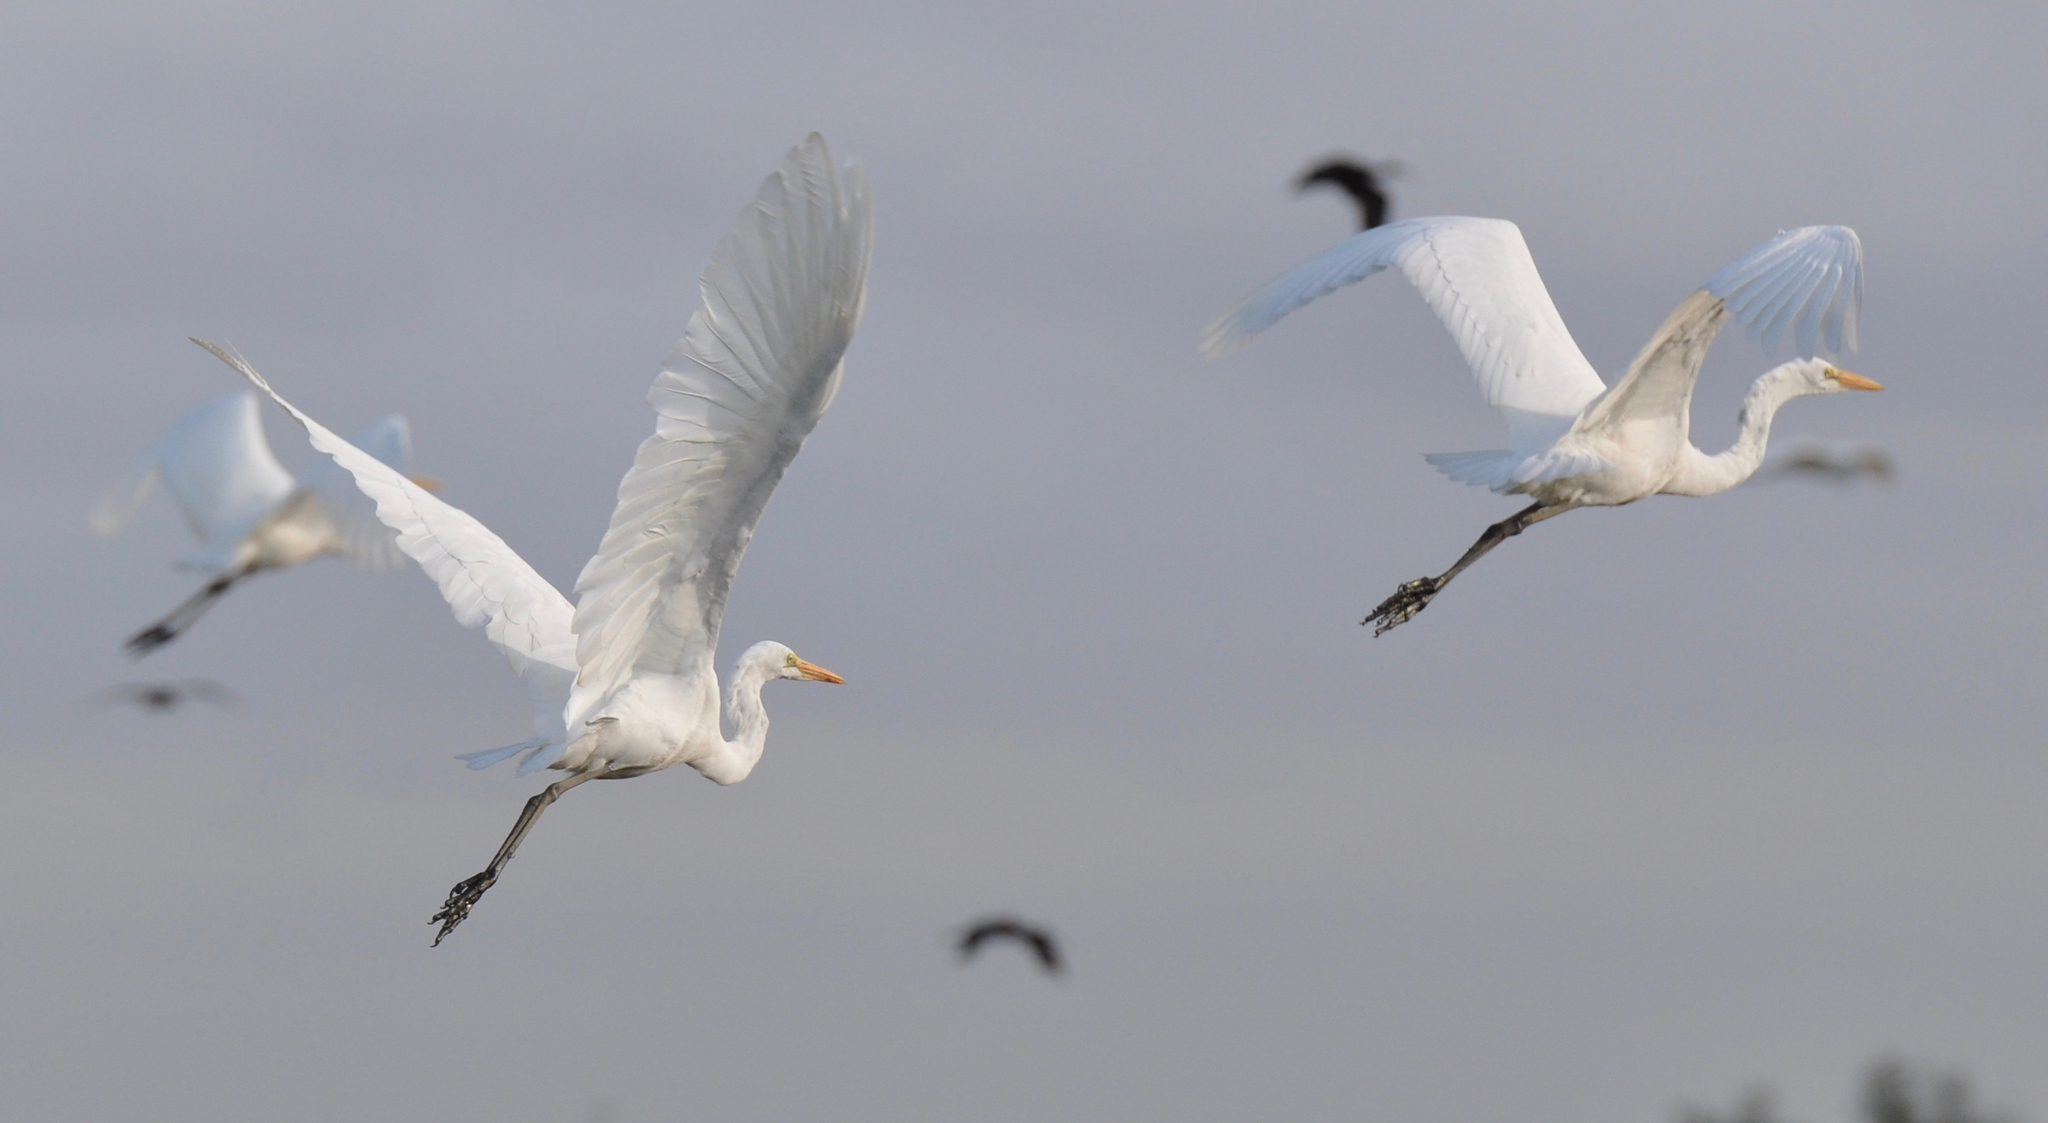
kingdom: Animalia
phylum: Chordata
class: Aves
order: Pelecaniformes
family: Ardeidae
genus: Ardea
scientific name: Ardea alba
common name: Great egret
